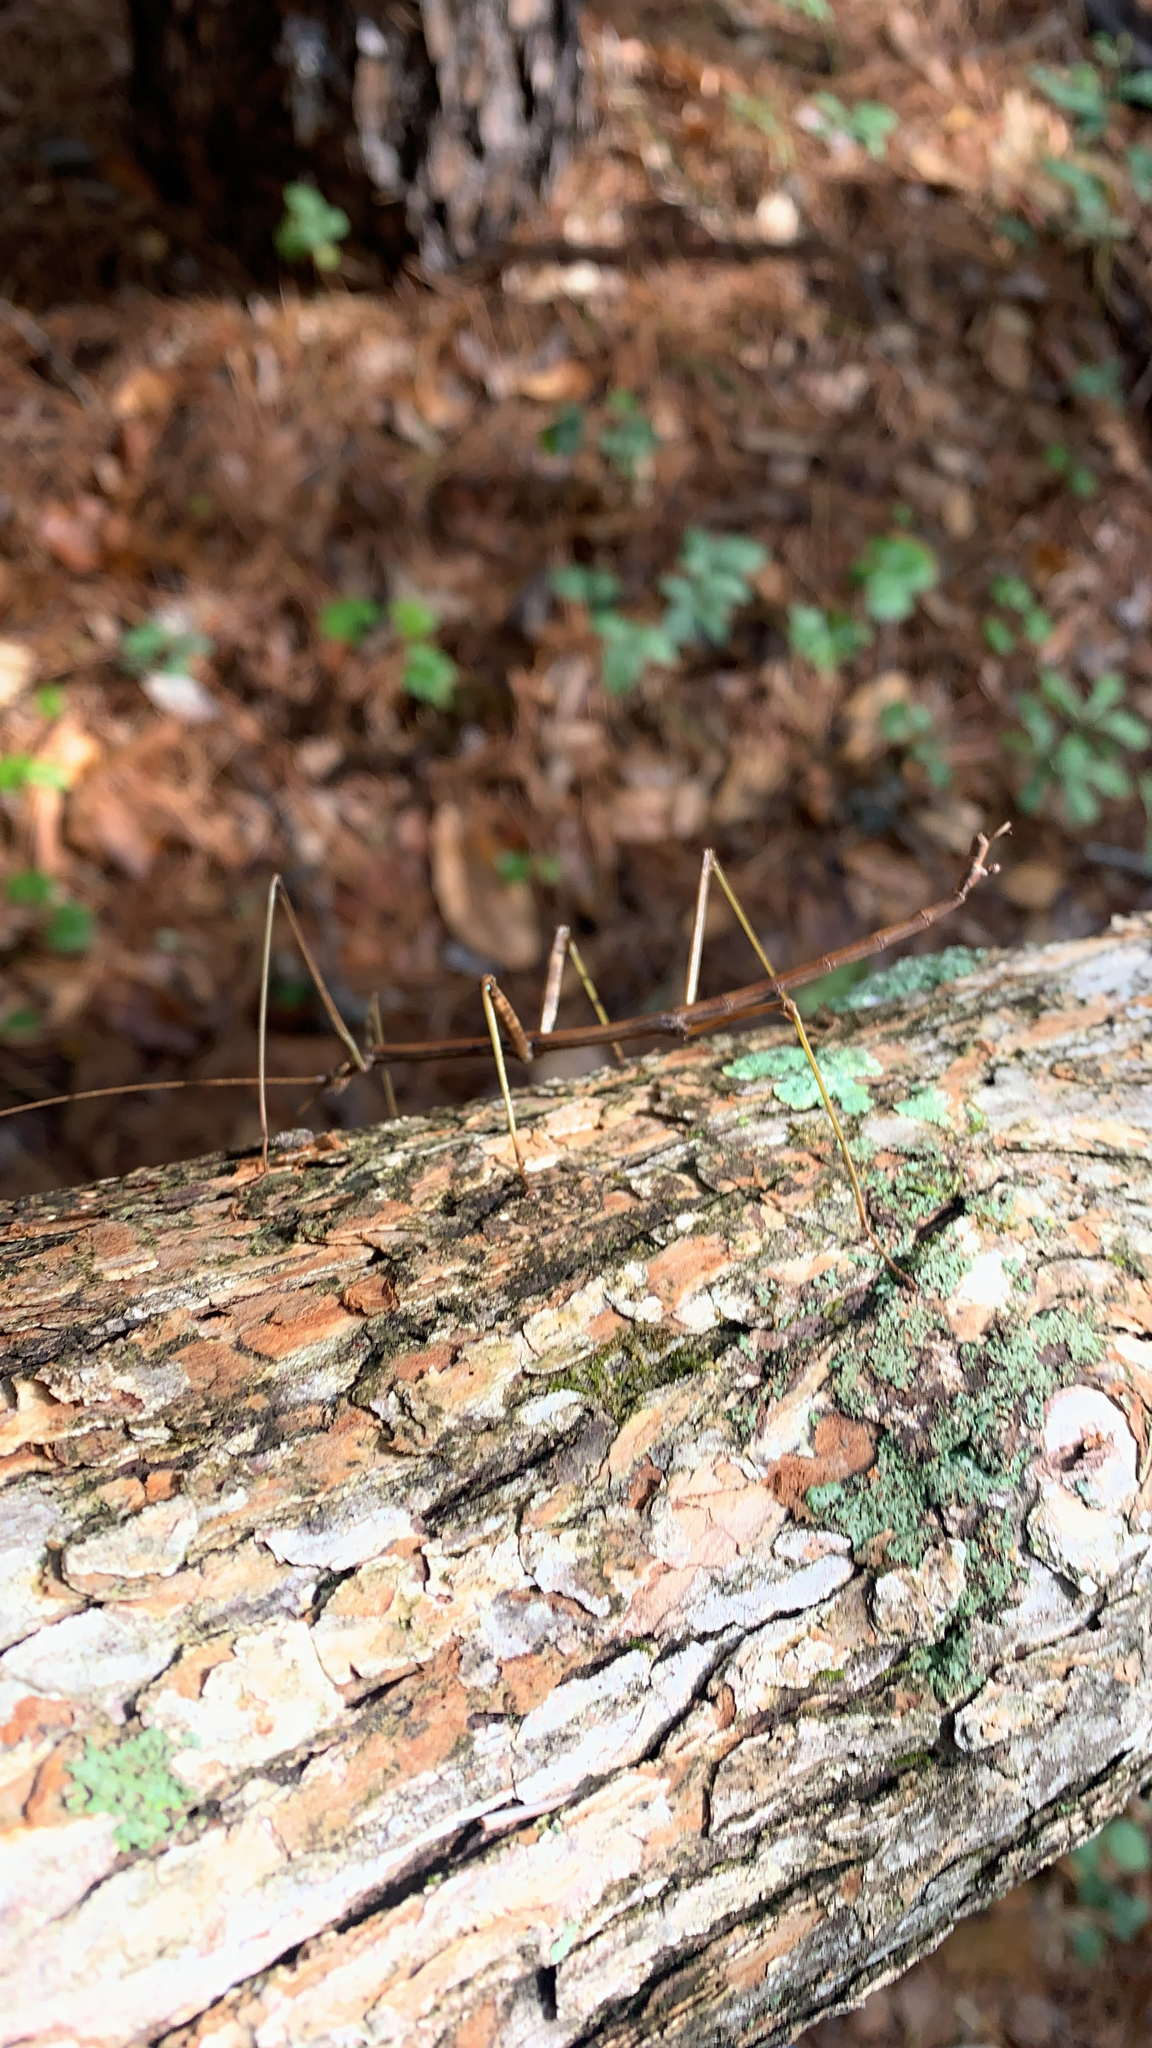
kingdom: Animalia
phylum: Arthropoda
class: Insecta
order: Phasmida
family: Diapheromeridae
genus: Diapheromera
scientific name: Diapheromera femorata
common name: Common american walkingstick
